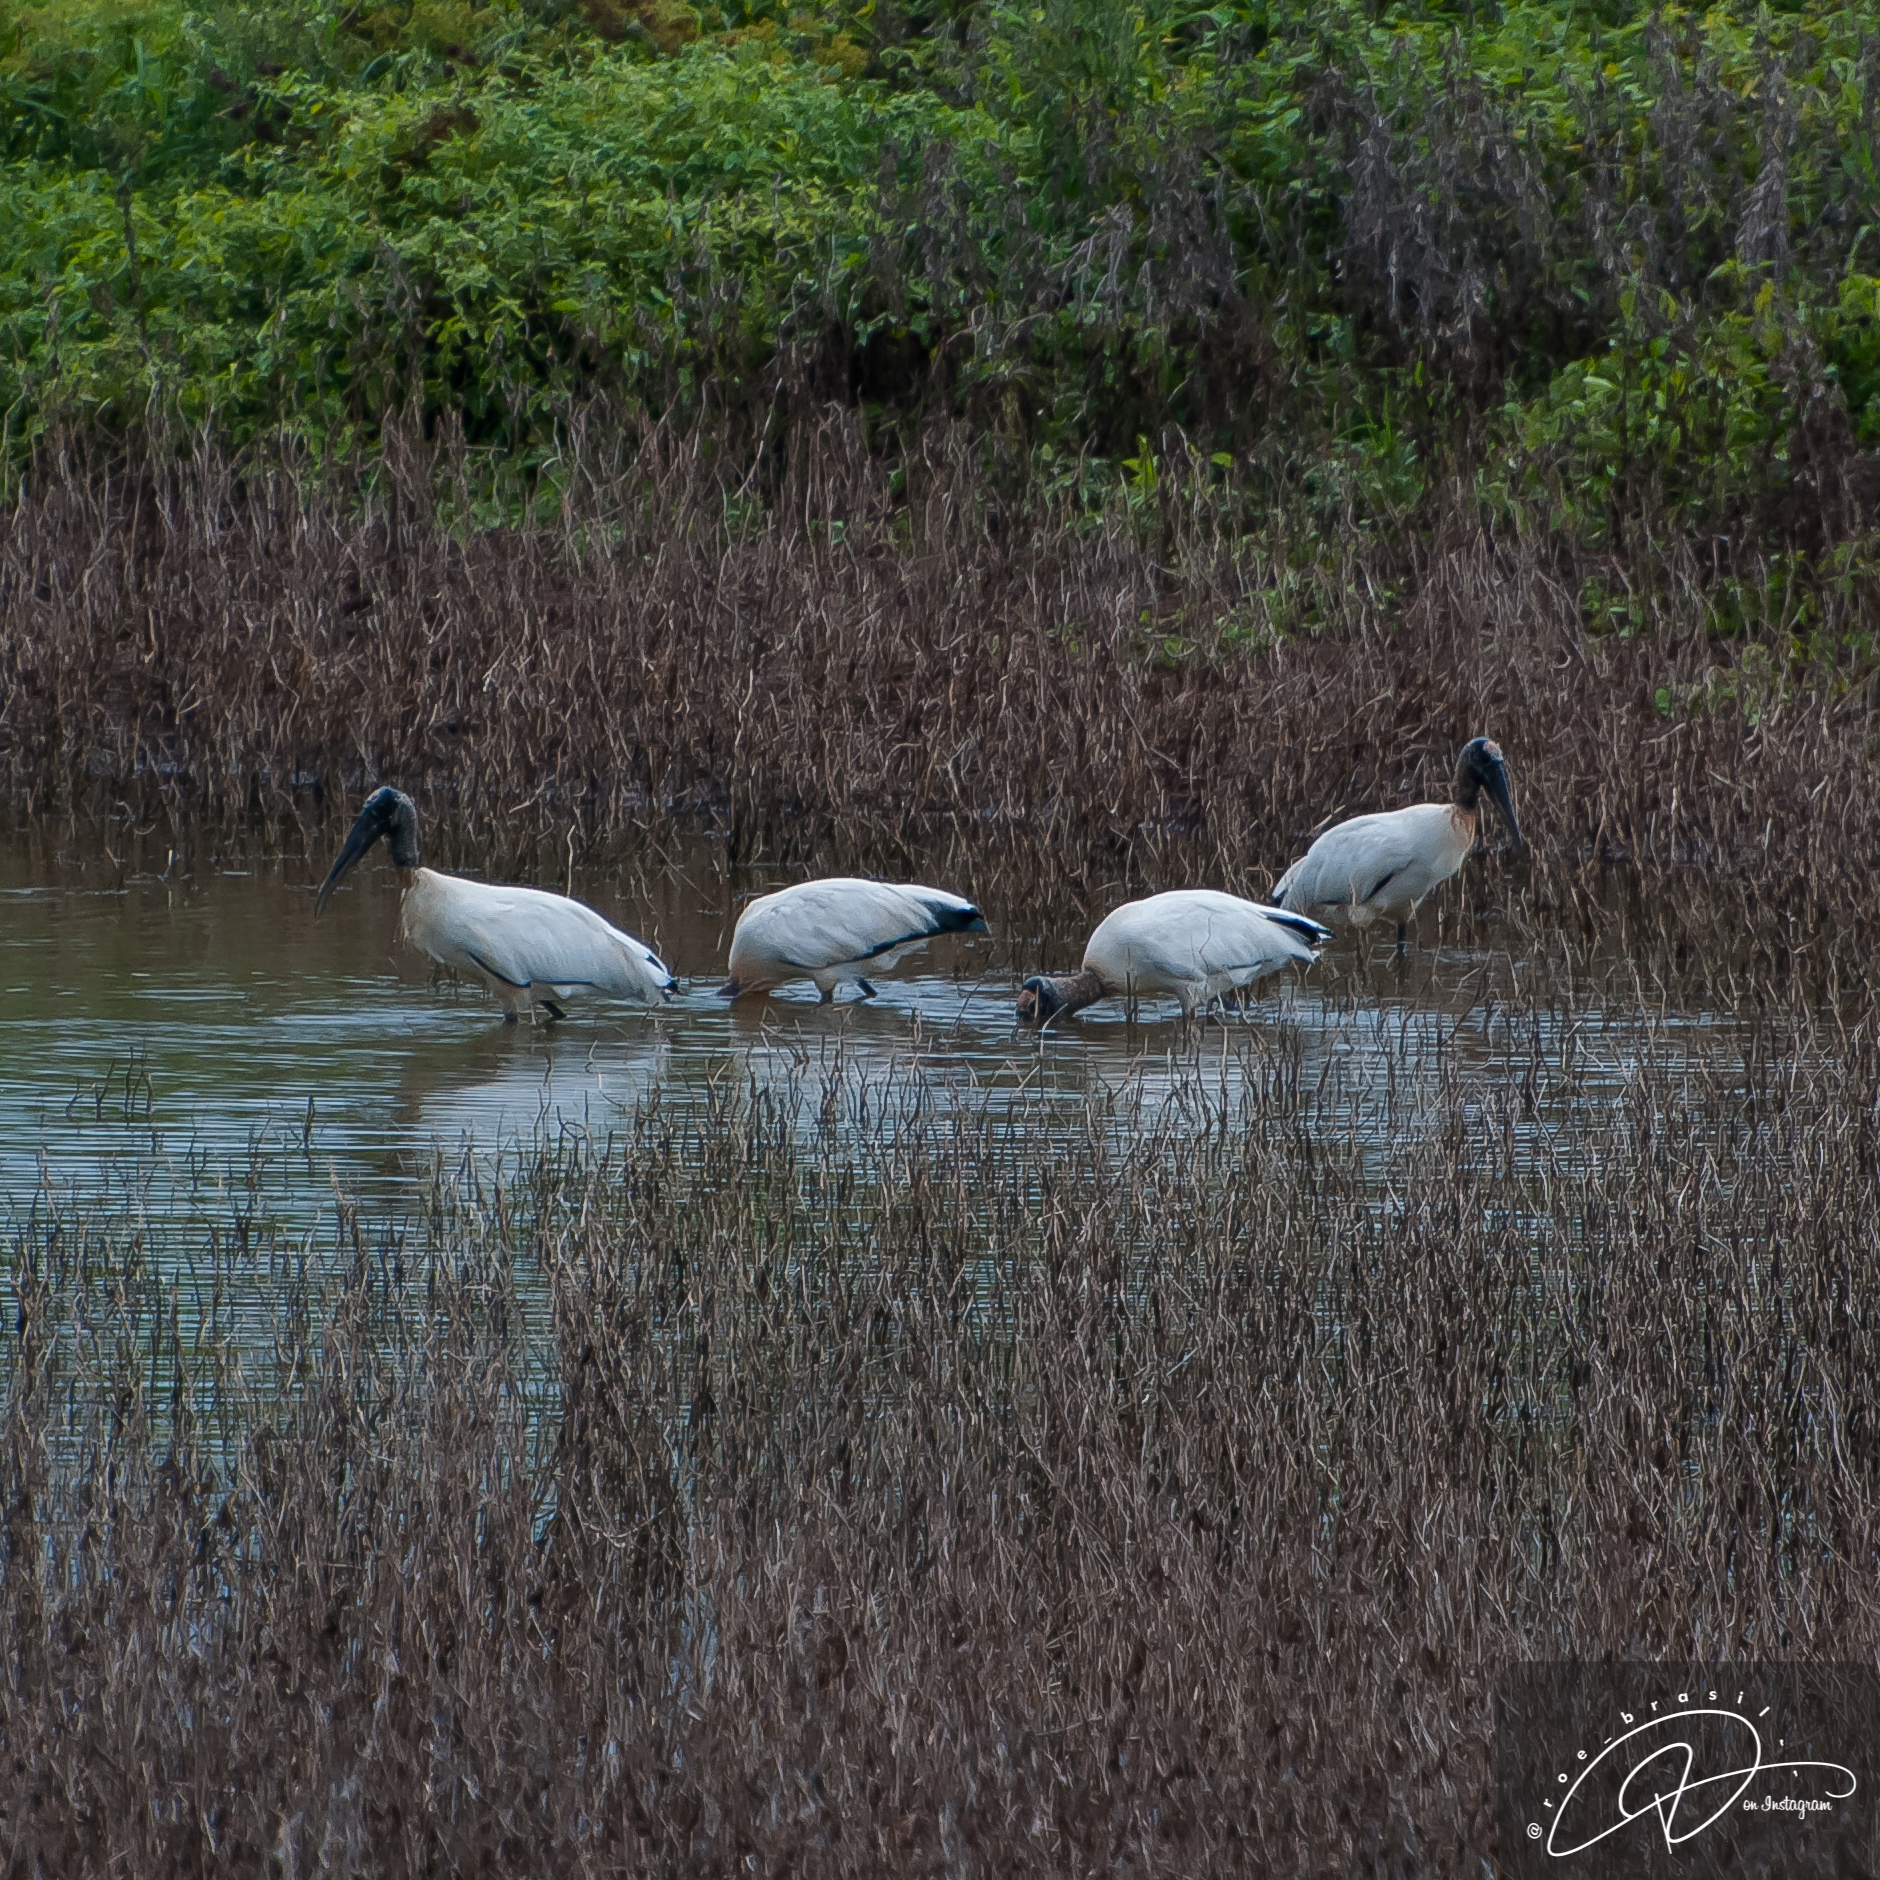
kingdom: Animalia
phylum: Chordata
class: Aves
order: Ciconiiformes
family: Ciconiidae
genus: Mycteria
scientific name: Mycteria americana
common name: Wood stork
